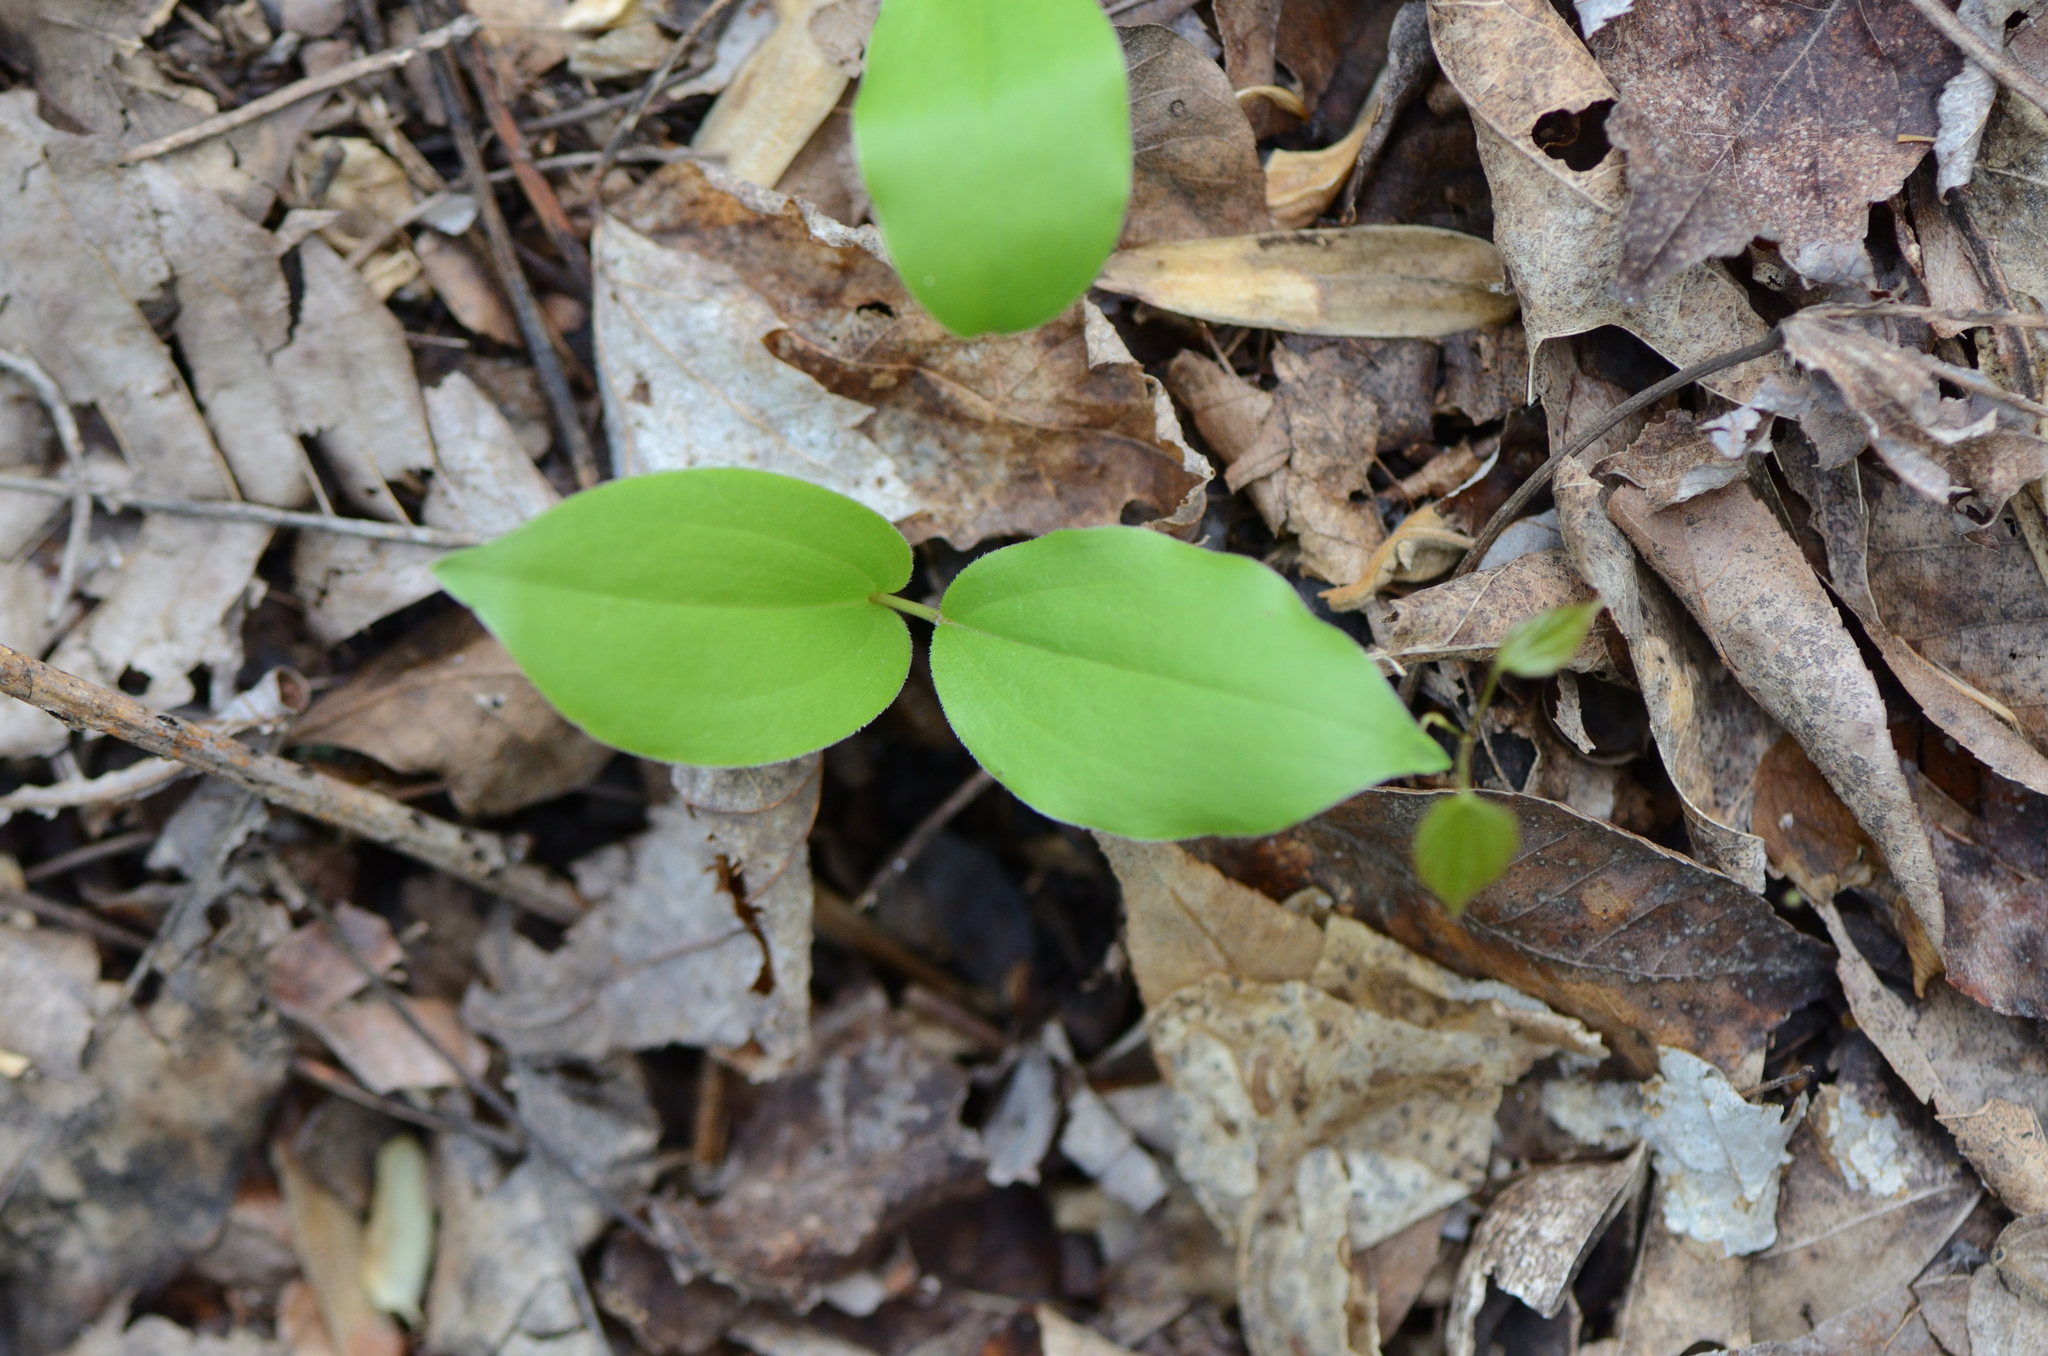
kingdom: Plantae
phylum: Tracheophyta
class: Liliopsida
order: Asparagales
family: Asparagaceae
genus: Maianthemum
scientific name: Maianthemum racemosum
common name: False spikenard
